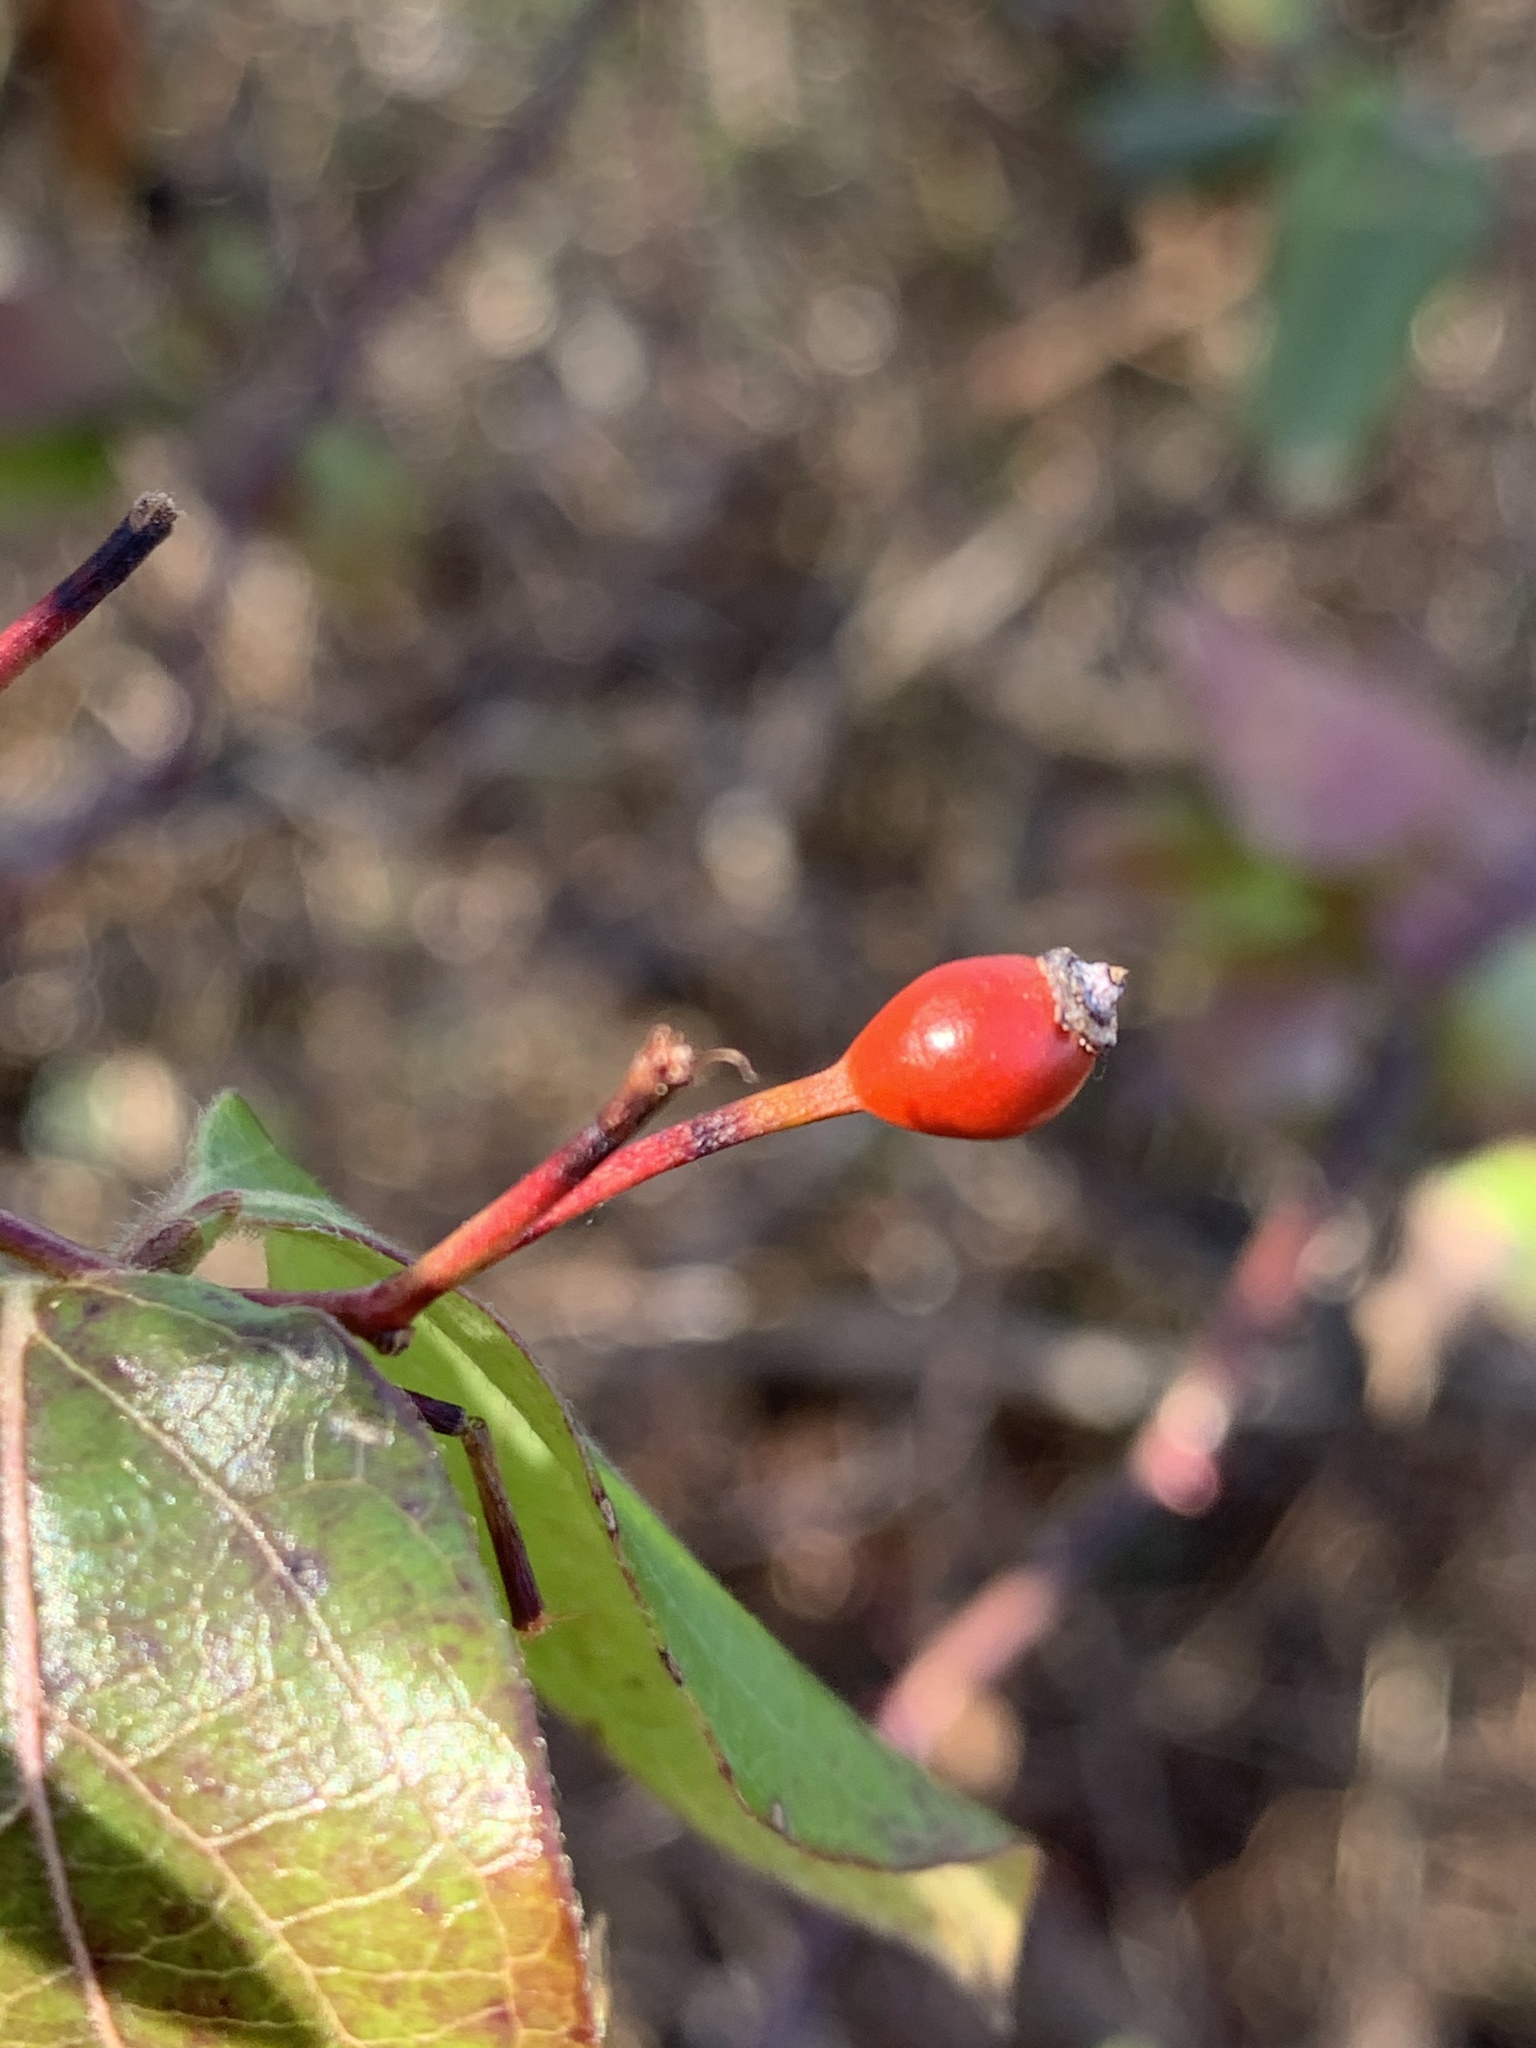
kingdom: Viruses
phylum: Negarnaviricota
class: Ellioviricetes
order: Bunyavirales
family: Fimoviridae
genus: Emaravirus
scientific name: Emaravirus rosae
